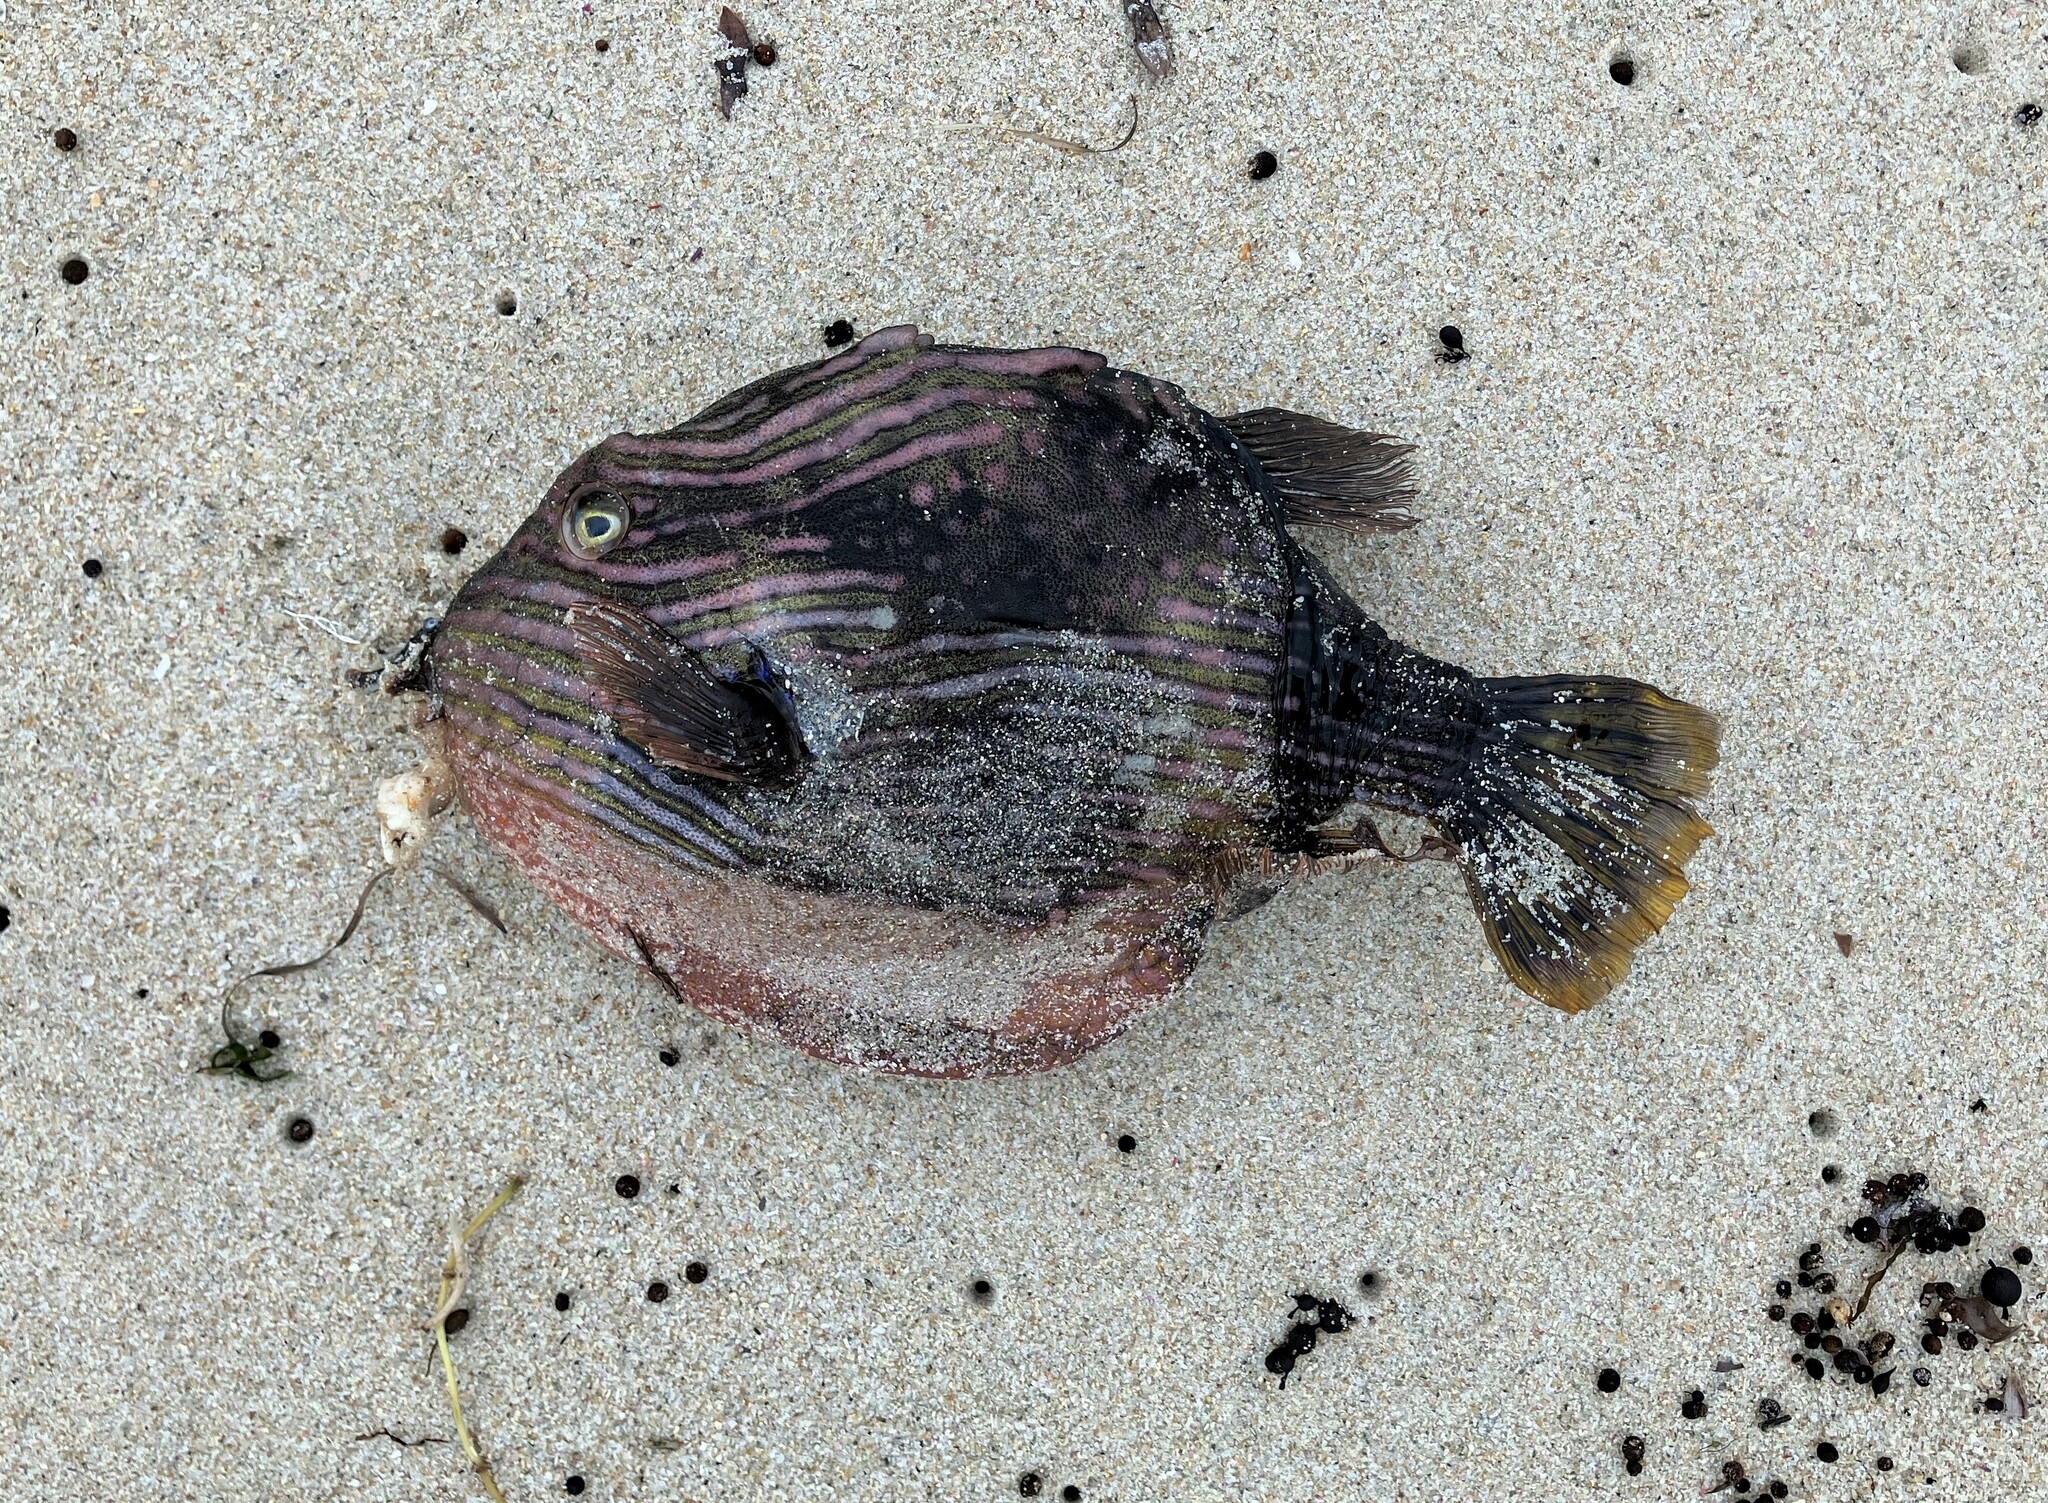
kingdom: Animalia
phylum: Chordata
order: Tetraodontiformes
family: Aracanidae
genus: Aracana
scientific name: Aracana aurita
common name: Shaw’s cowfish
